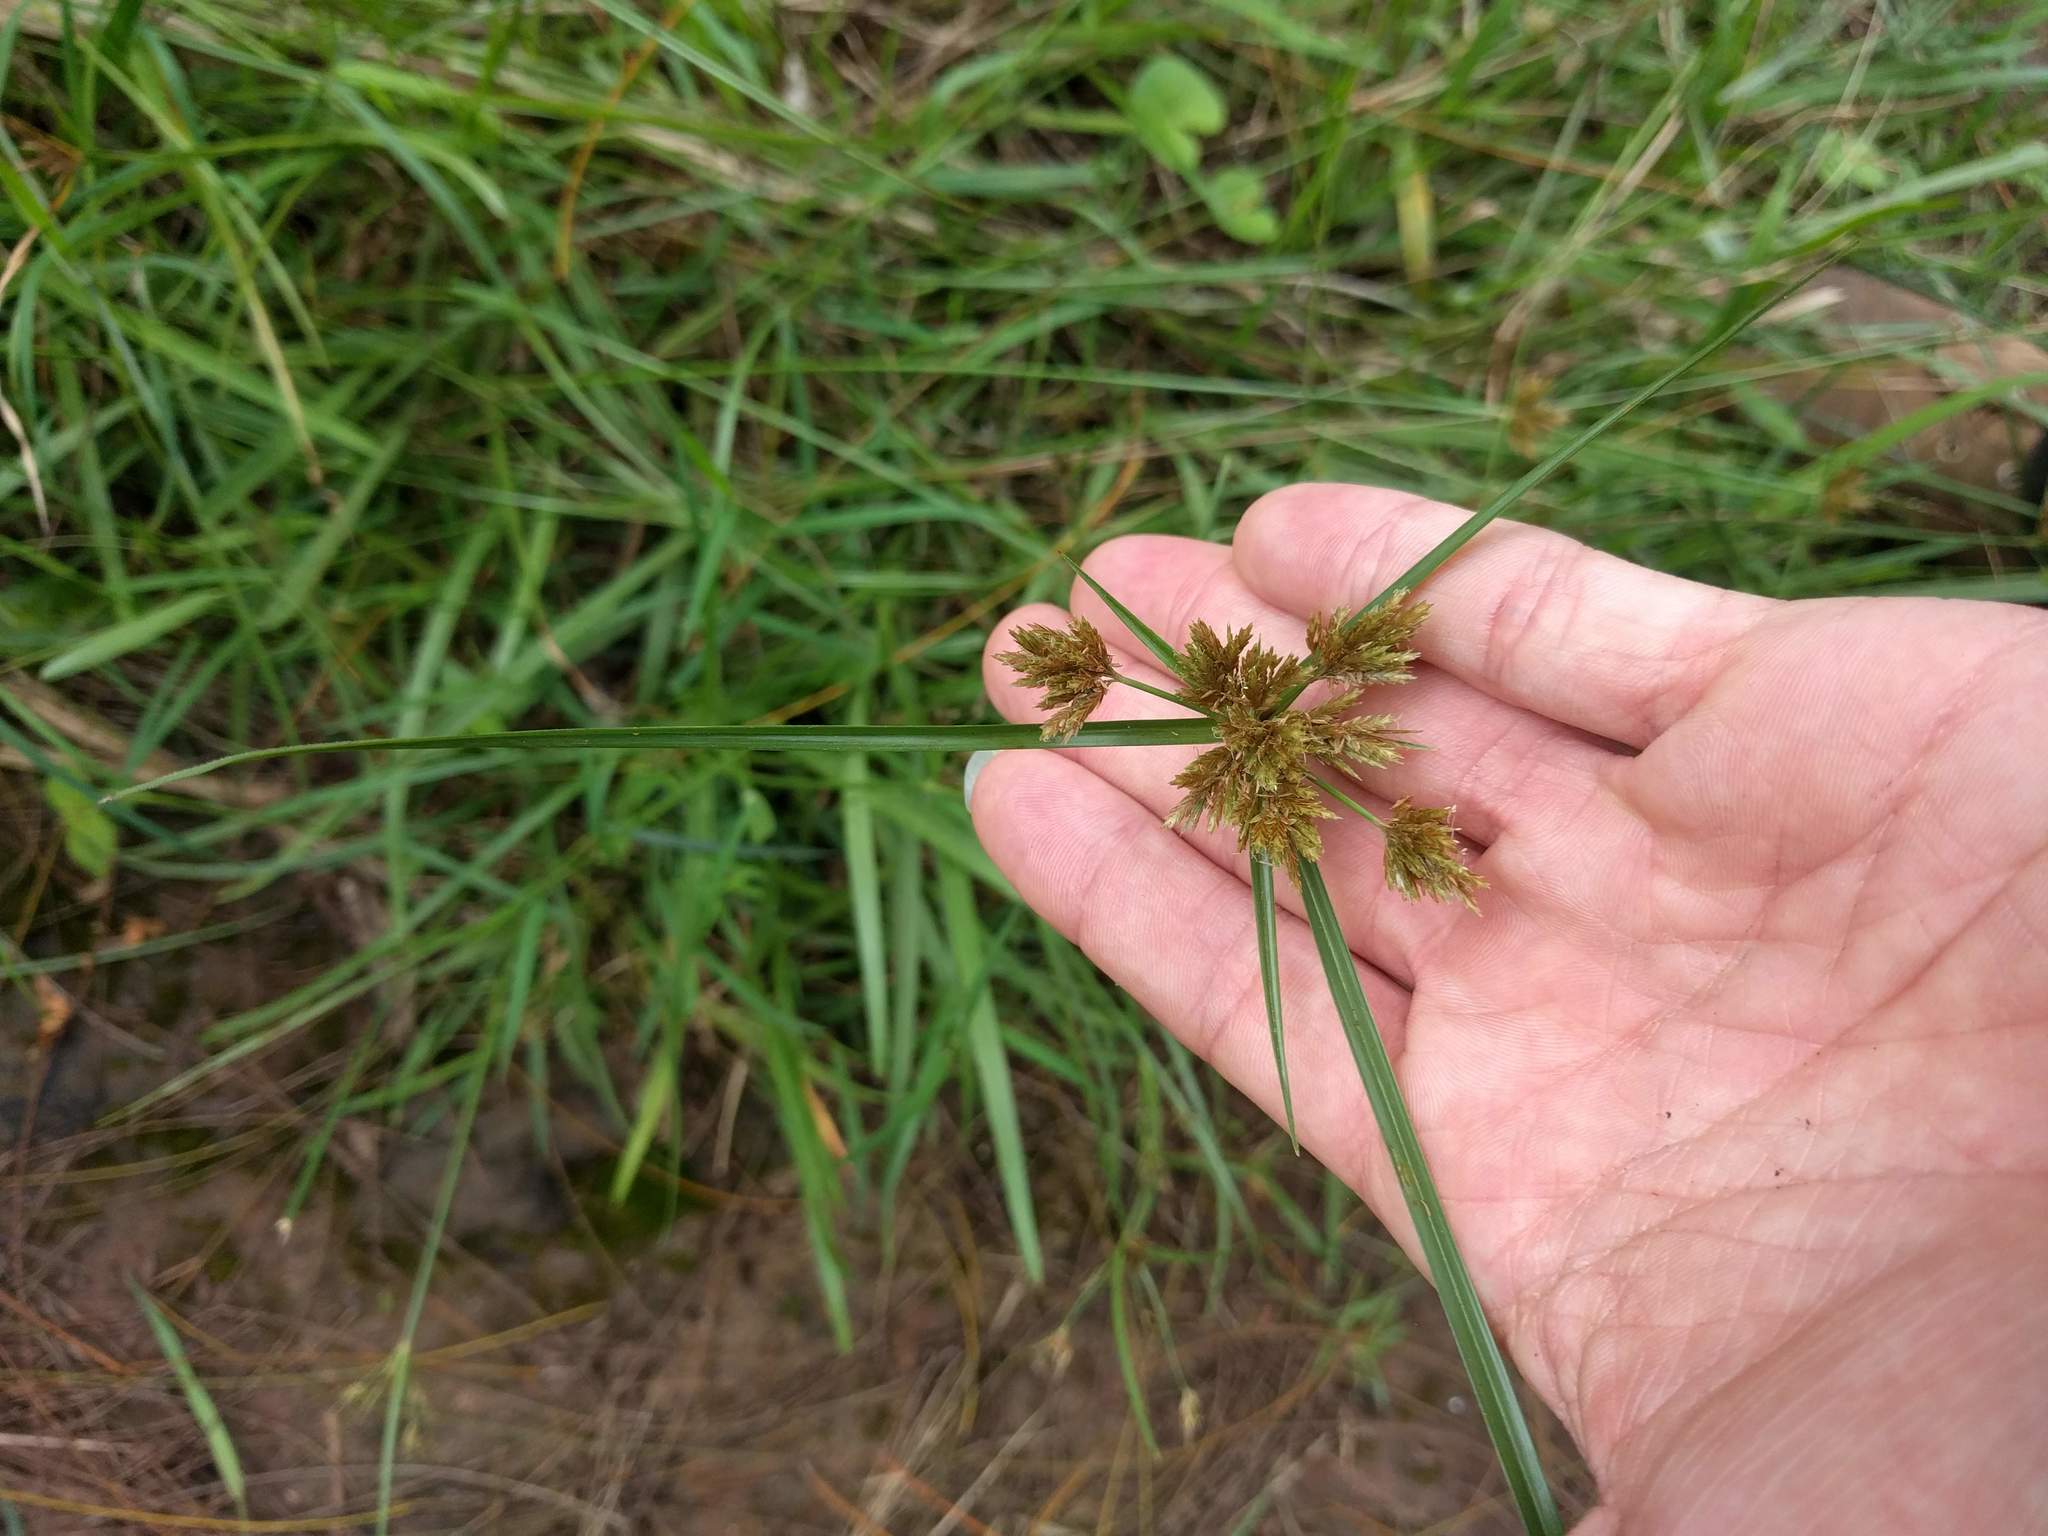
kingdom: Plantae
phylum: Tracheophyta
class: Liliopsida
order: Poales
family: Cyperaceae
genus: Cyperus
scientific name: Cyperus polystachyos
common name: Bunchy flat sedge
